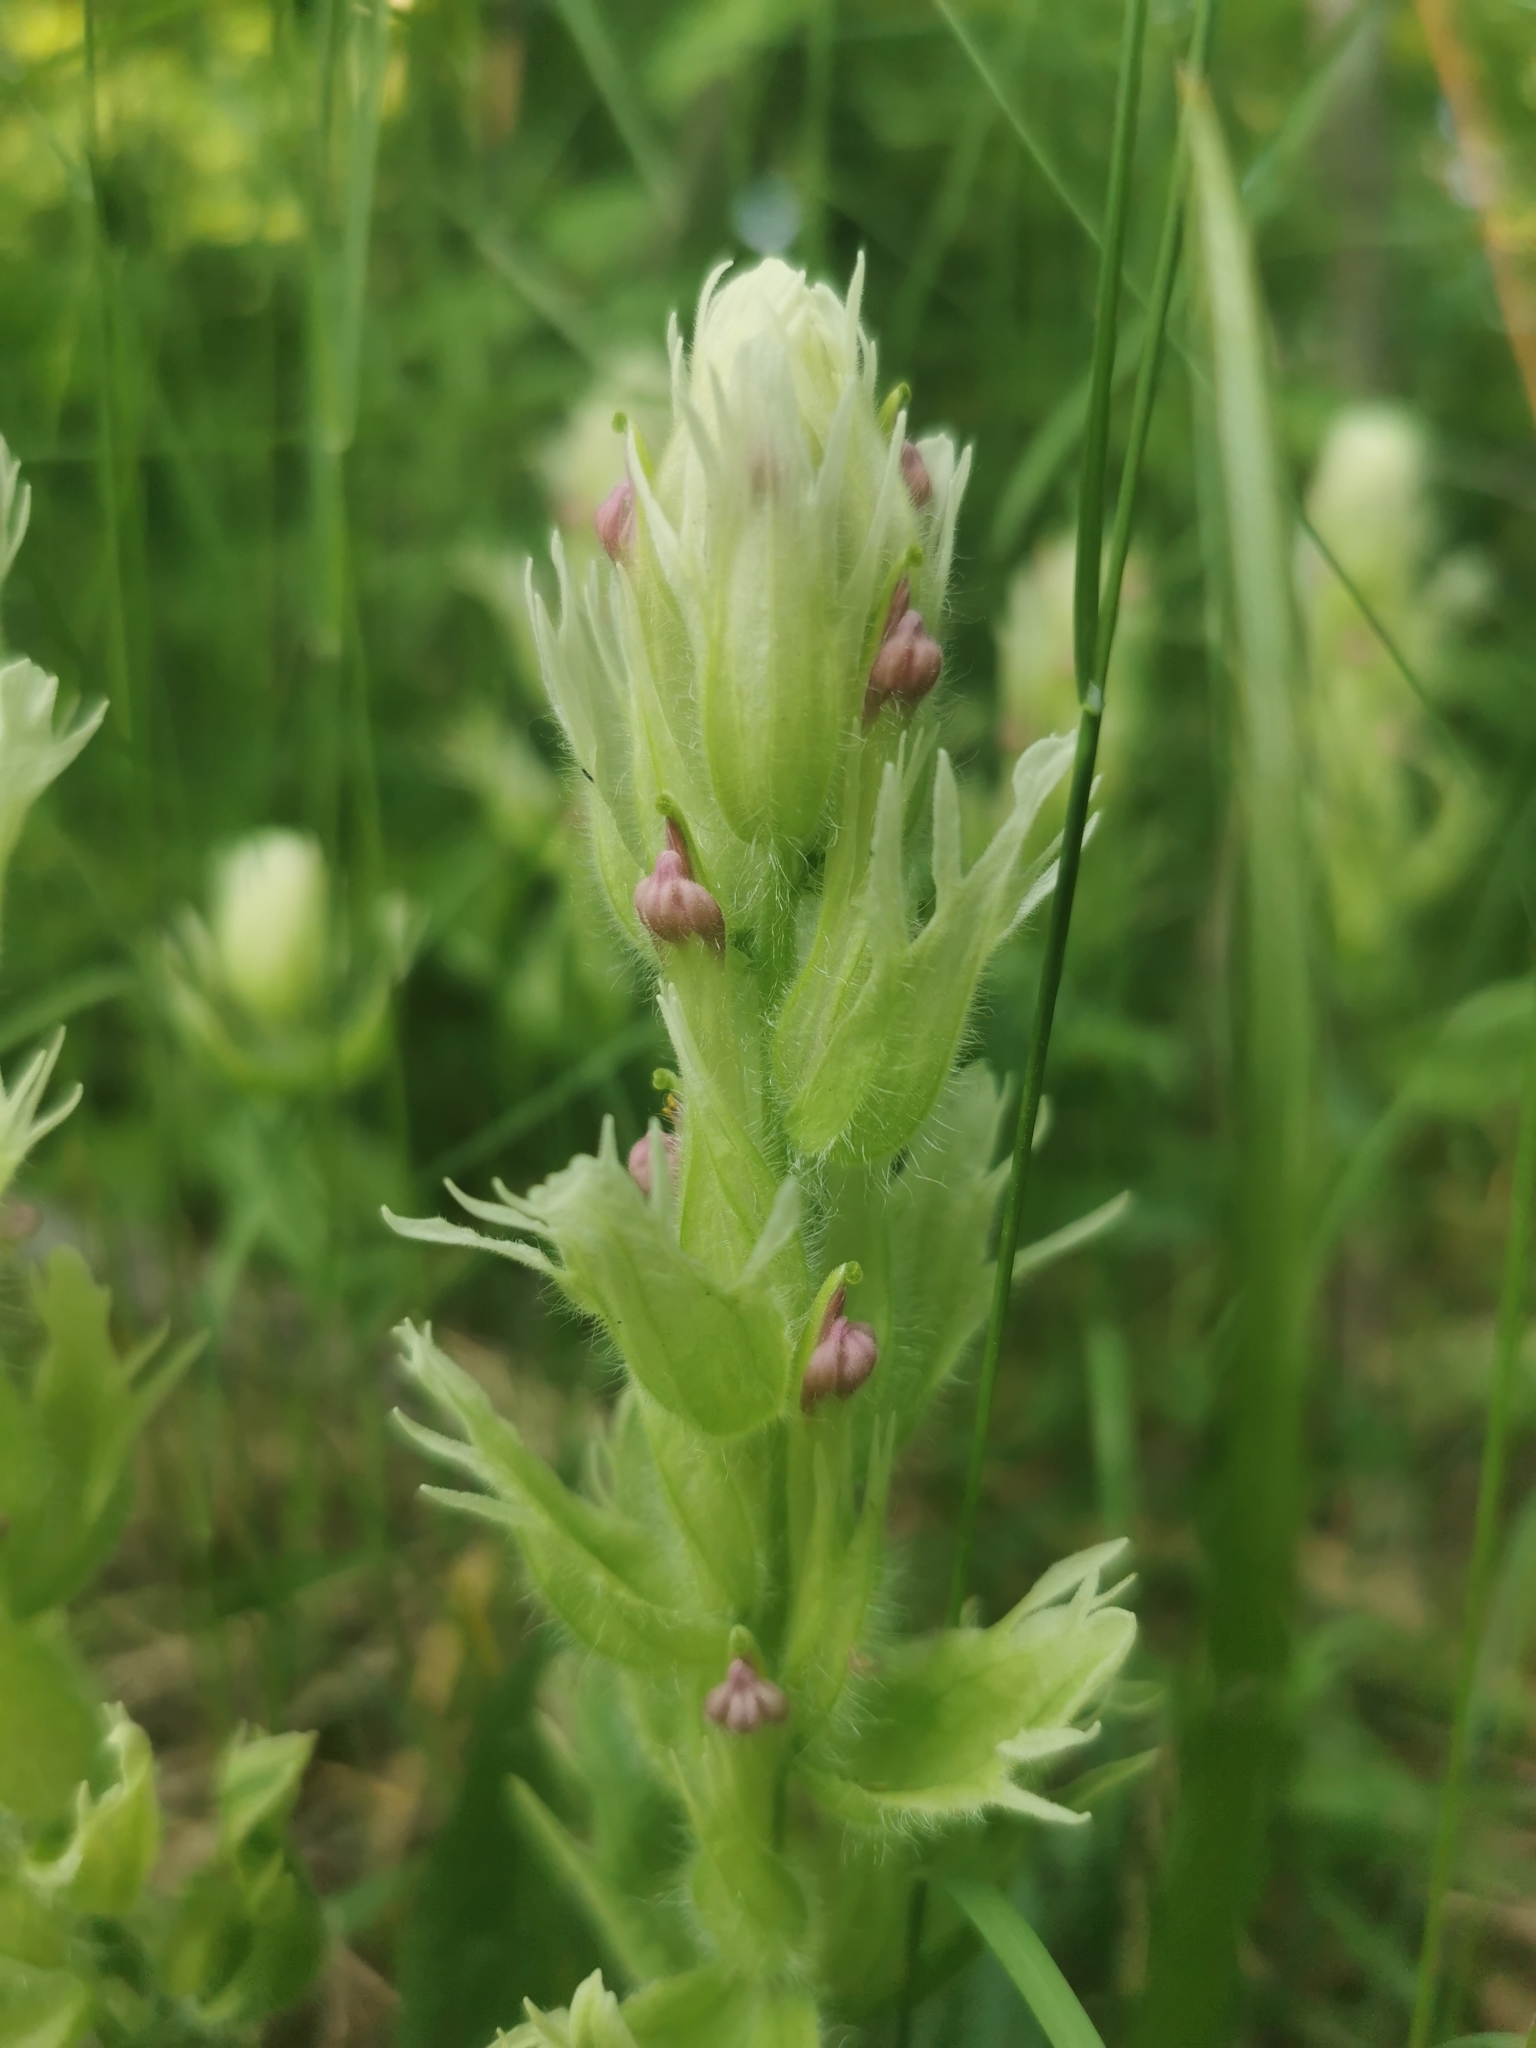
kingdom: Plantae
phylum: Tracheophyta
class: Magnoliopsida
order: Lamiales
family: Orobanchaceae
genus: Castilleja
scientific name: Castilleja pallida
